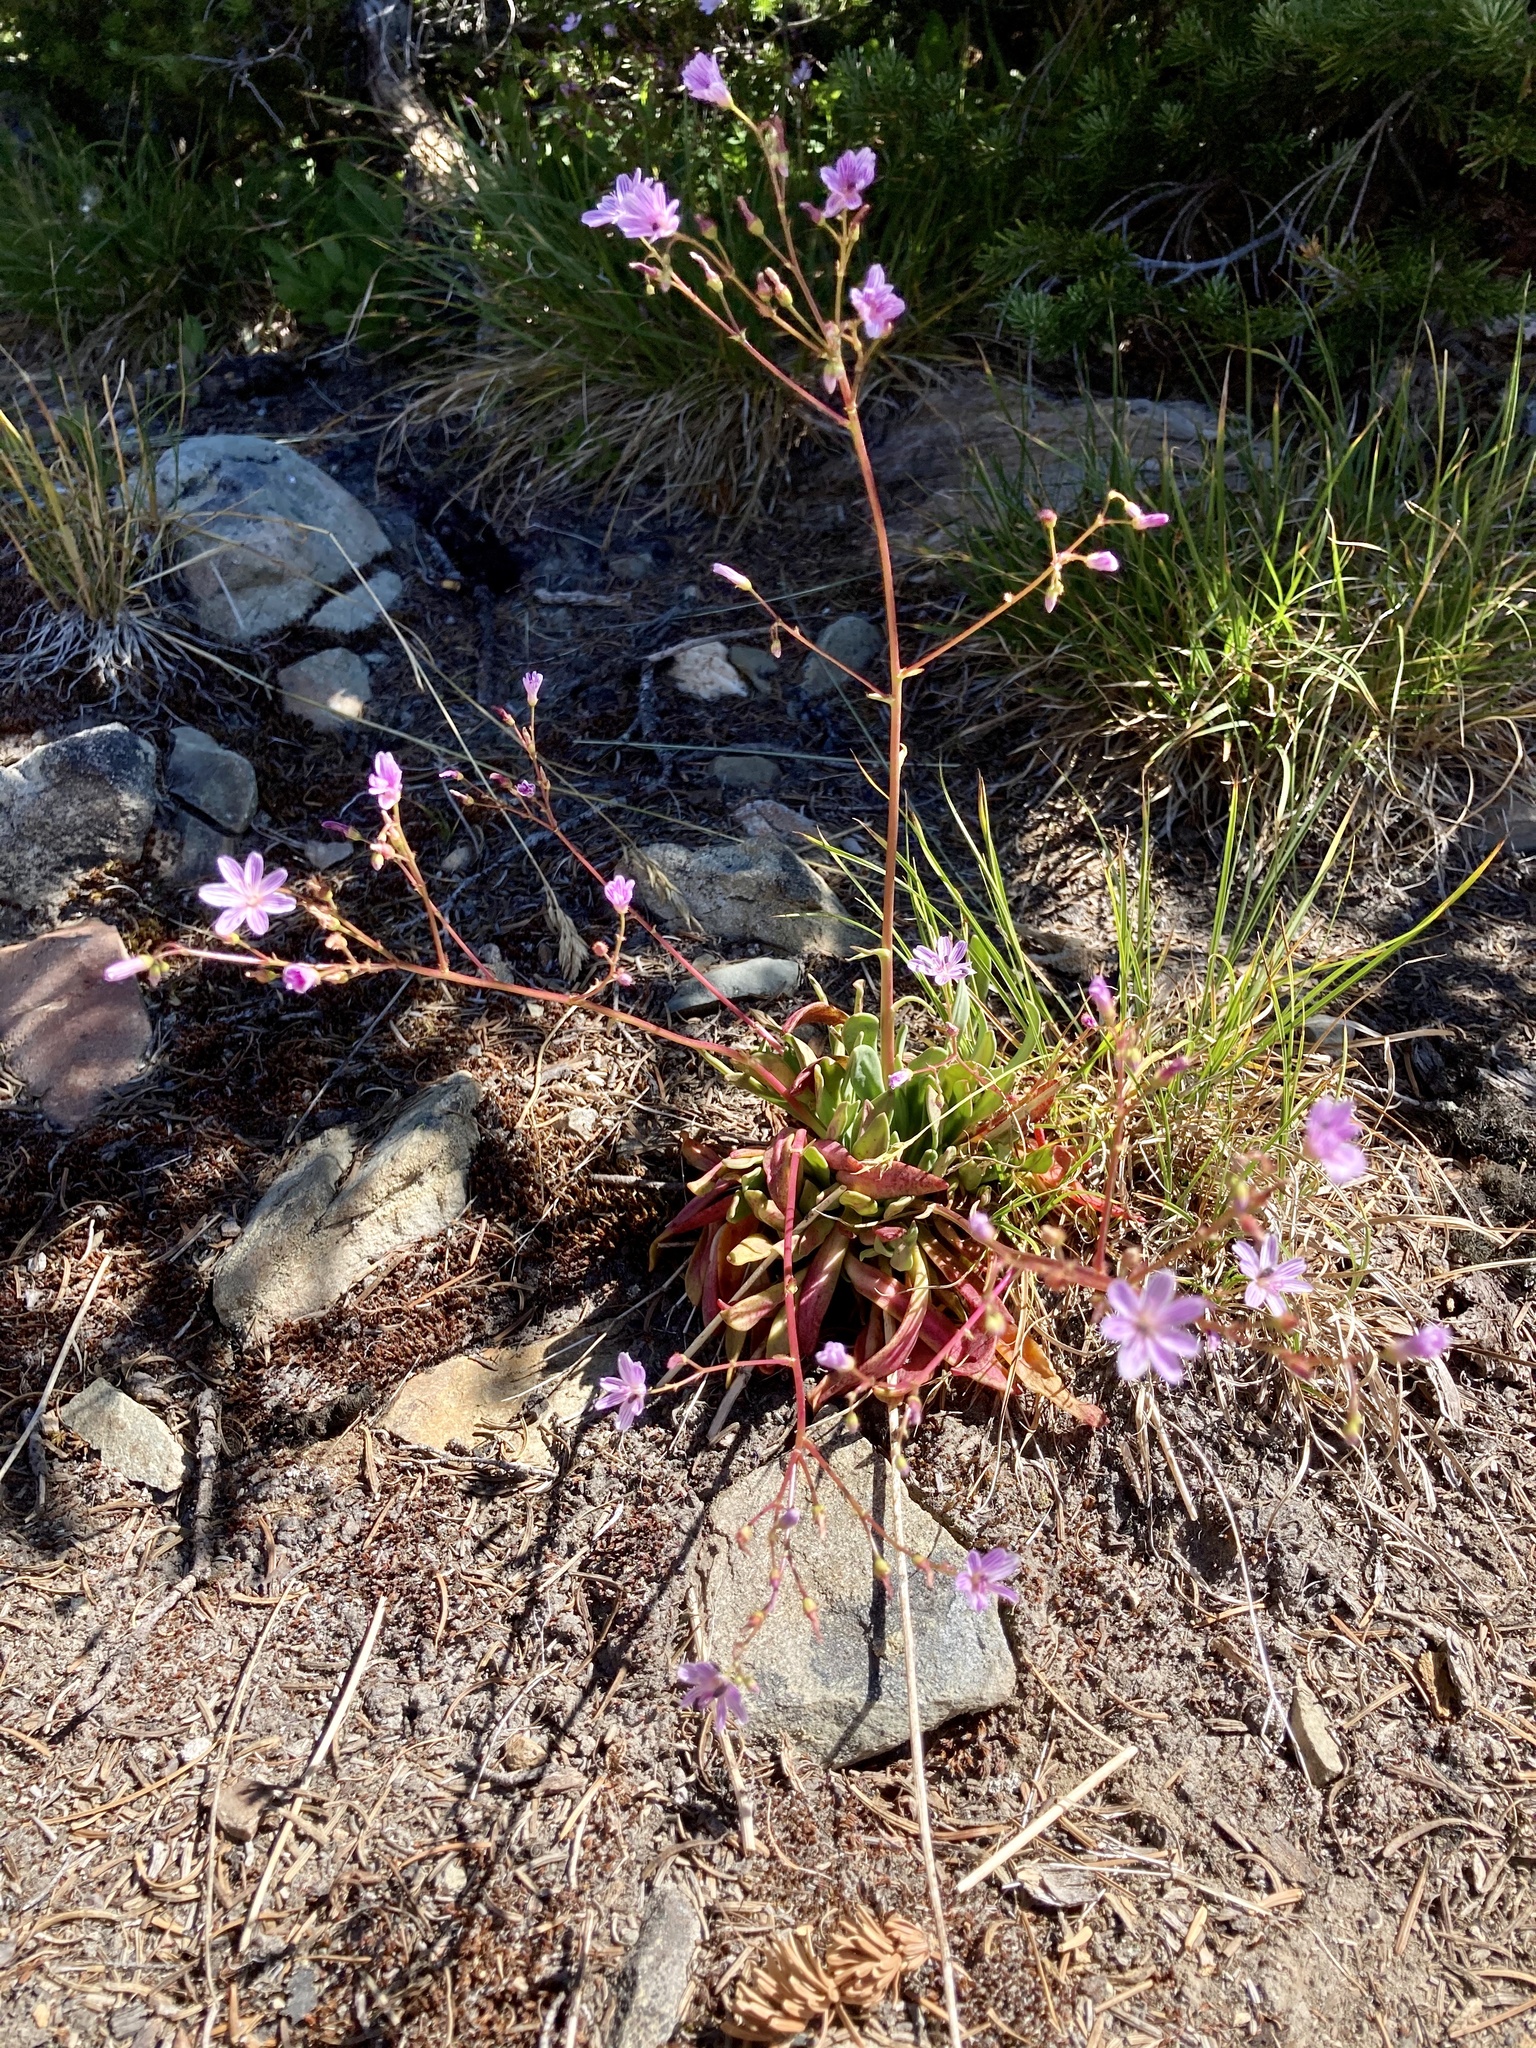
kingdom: Plantae
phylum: Tracheophyta
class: Magnoliopsida
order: Caryophyllales
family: Montiaceae
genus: Lewisia
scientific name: Lewisia columbiana
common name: Columbia lewisia
